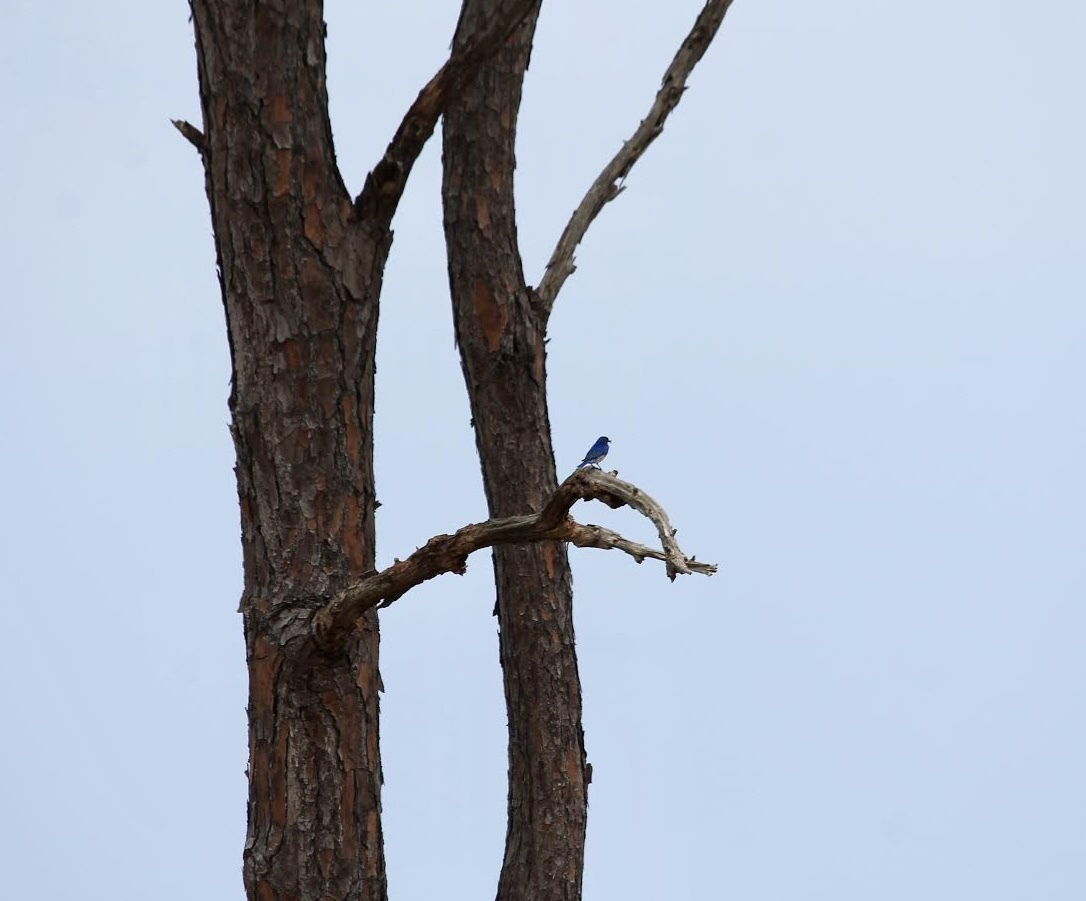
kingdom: Animalia
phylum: Chordata
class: Aves
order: Passeriformes
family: Turdidae
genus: Sialia
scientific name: Sialia sialis
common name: Eastern bluebird
